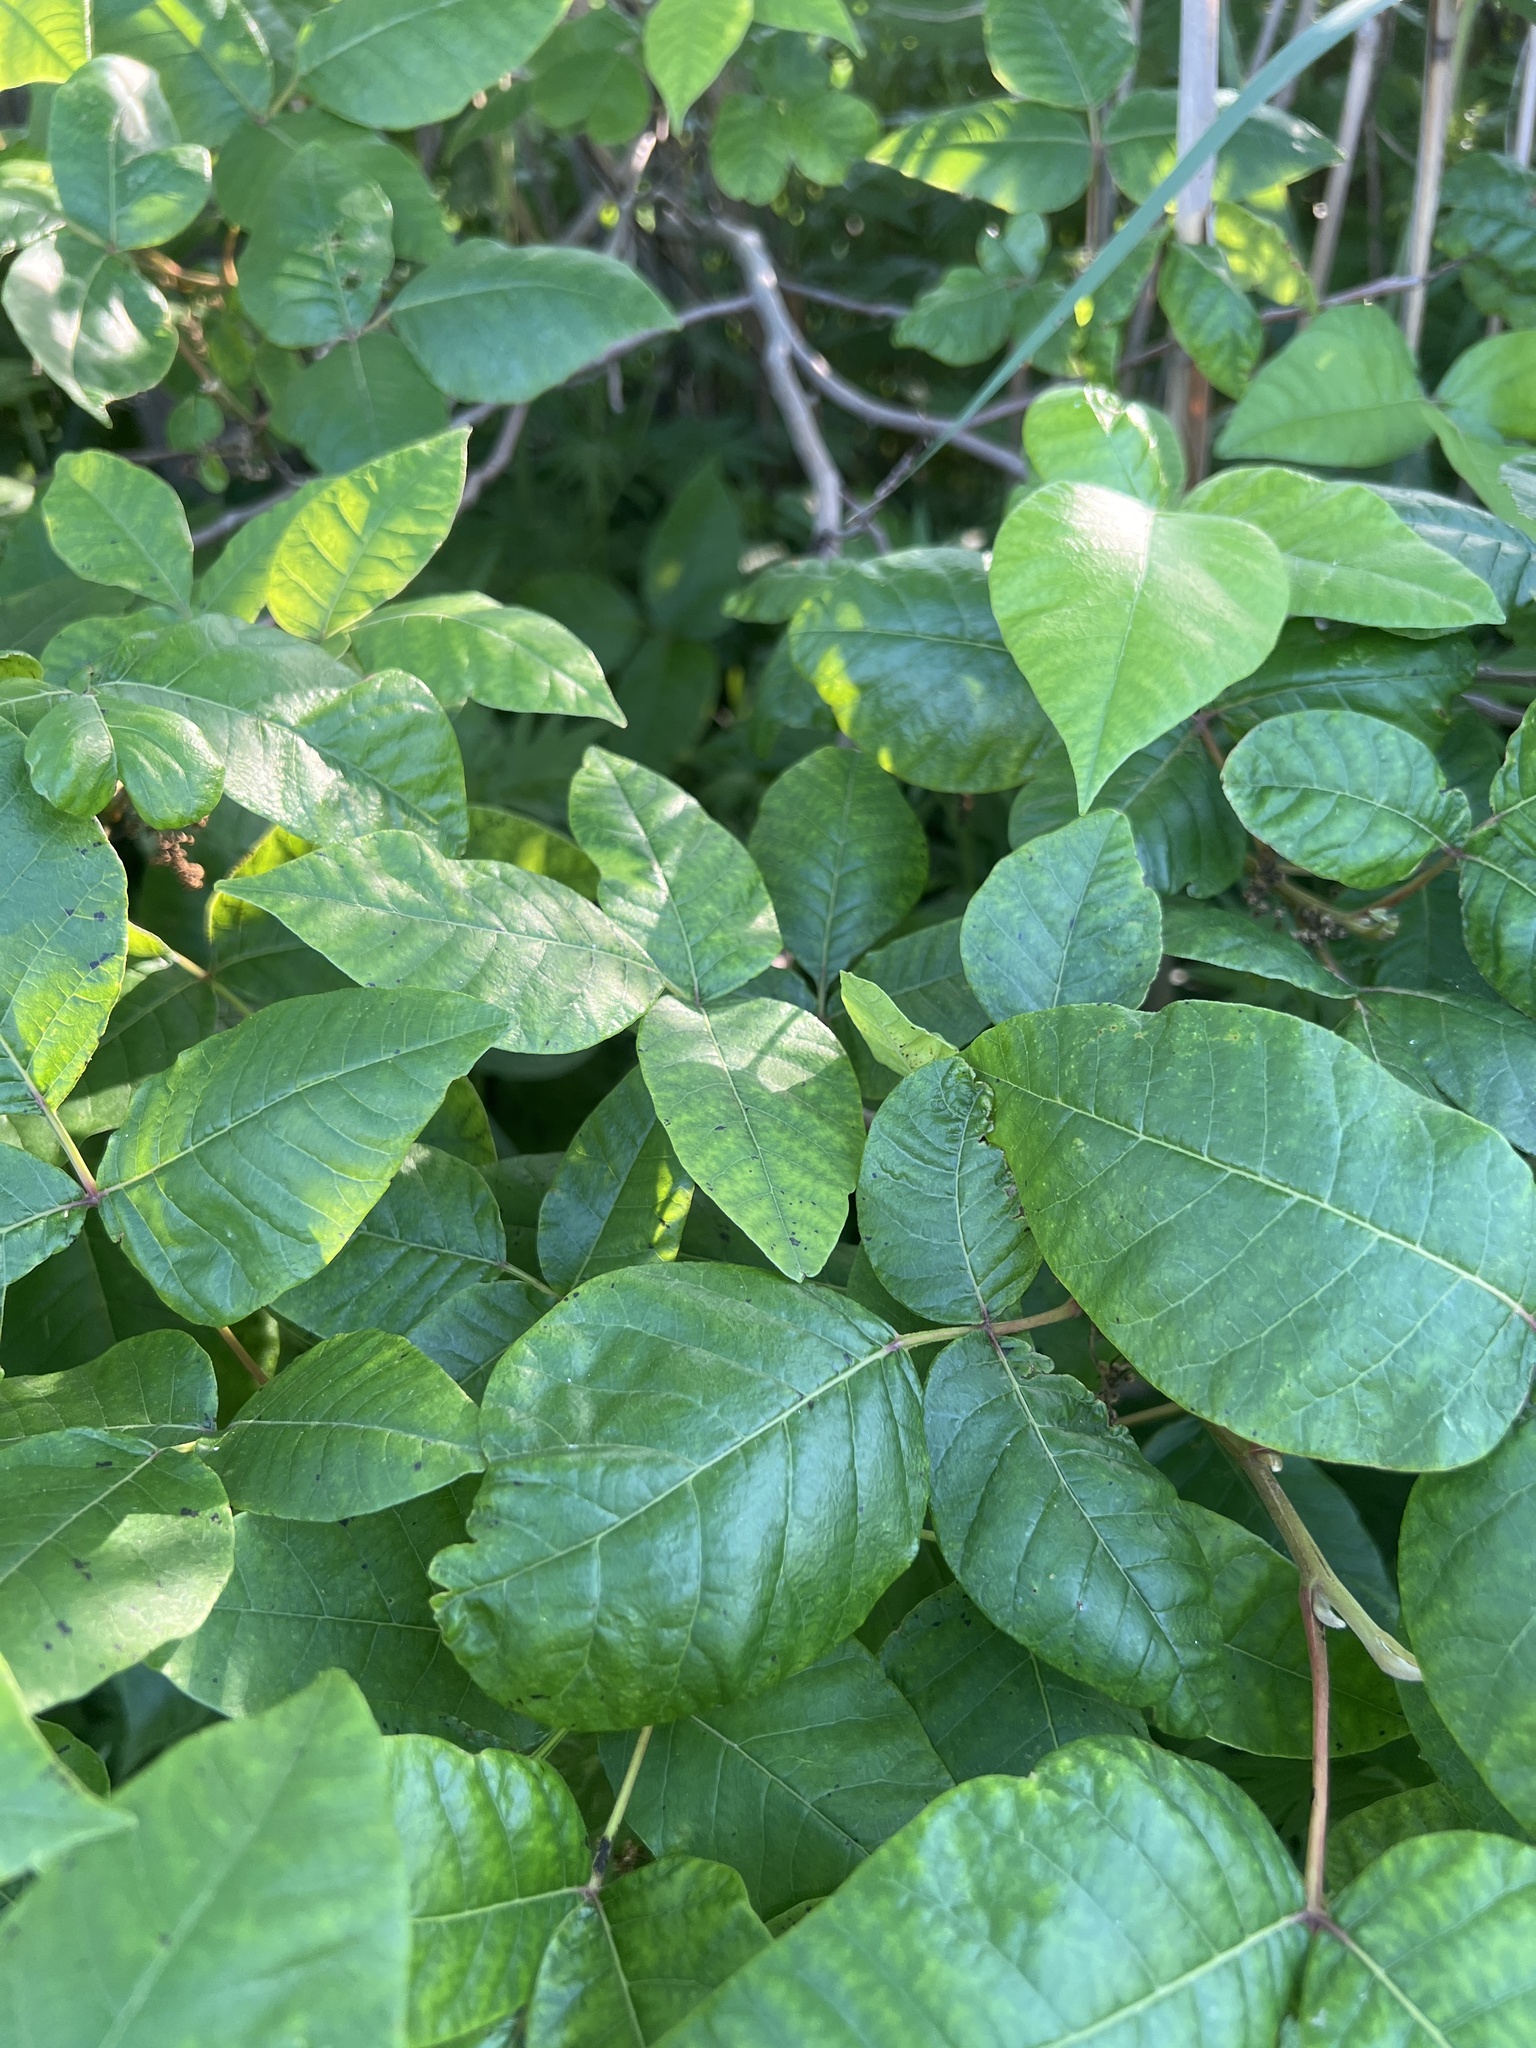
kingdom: Plantae
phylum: Tracheophyta
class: Magnoliopsida
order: Sapindales
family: Anacardiaceae
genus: Toxicodendron
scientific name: Toxicodendron radicans
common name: Poison ivy
